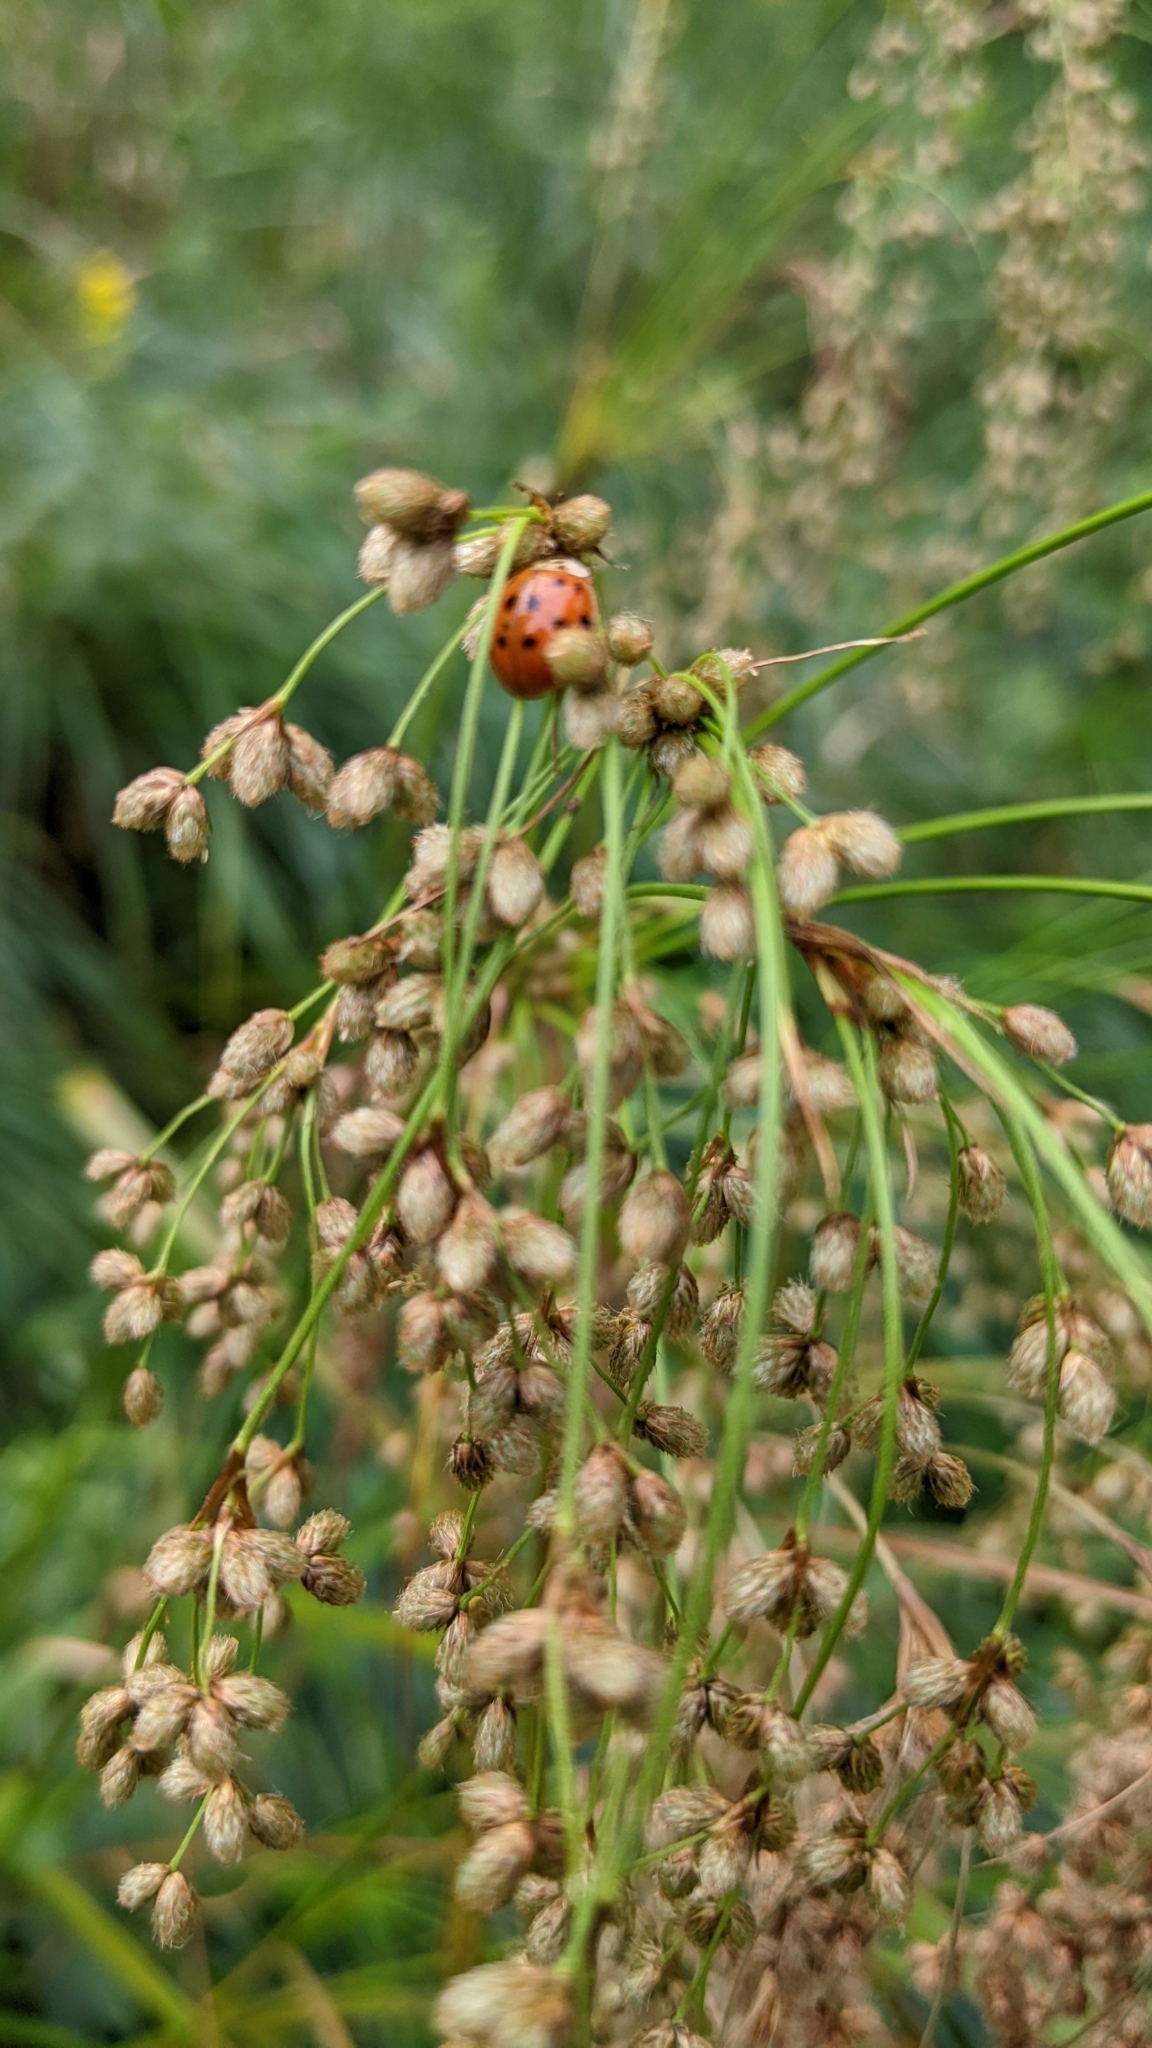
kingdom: Animalia
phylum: Arthropoda
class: Insecta
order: Coleoptera
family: Coccinellidae
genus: Harmonia
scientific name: Harmonia axyridis
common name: Harlequin ladybird
